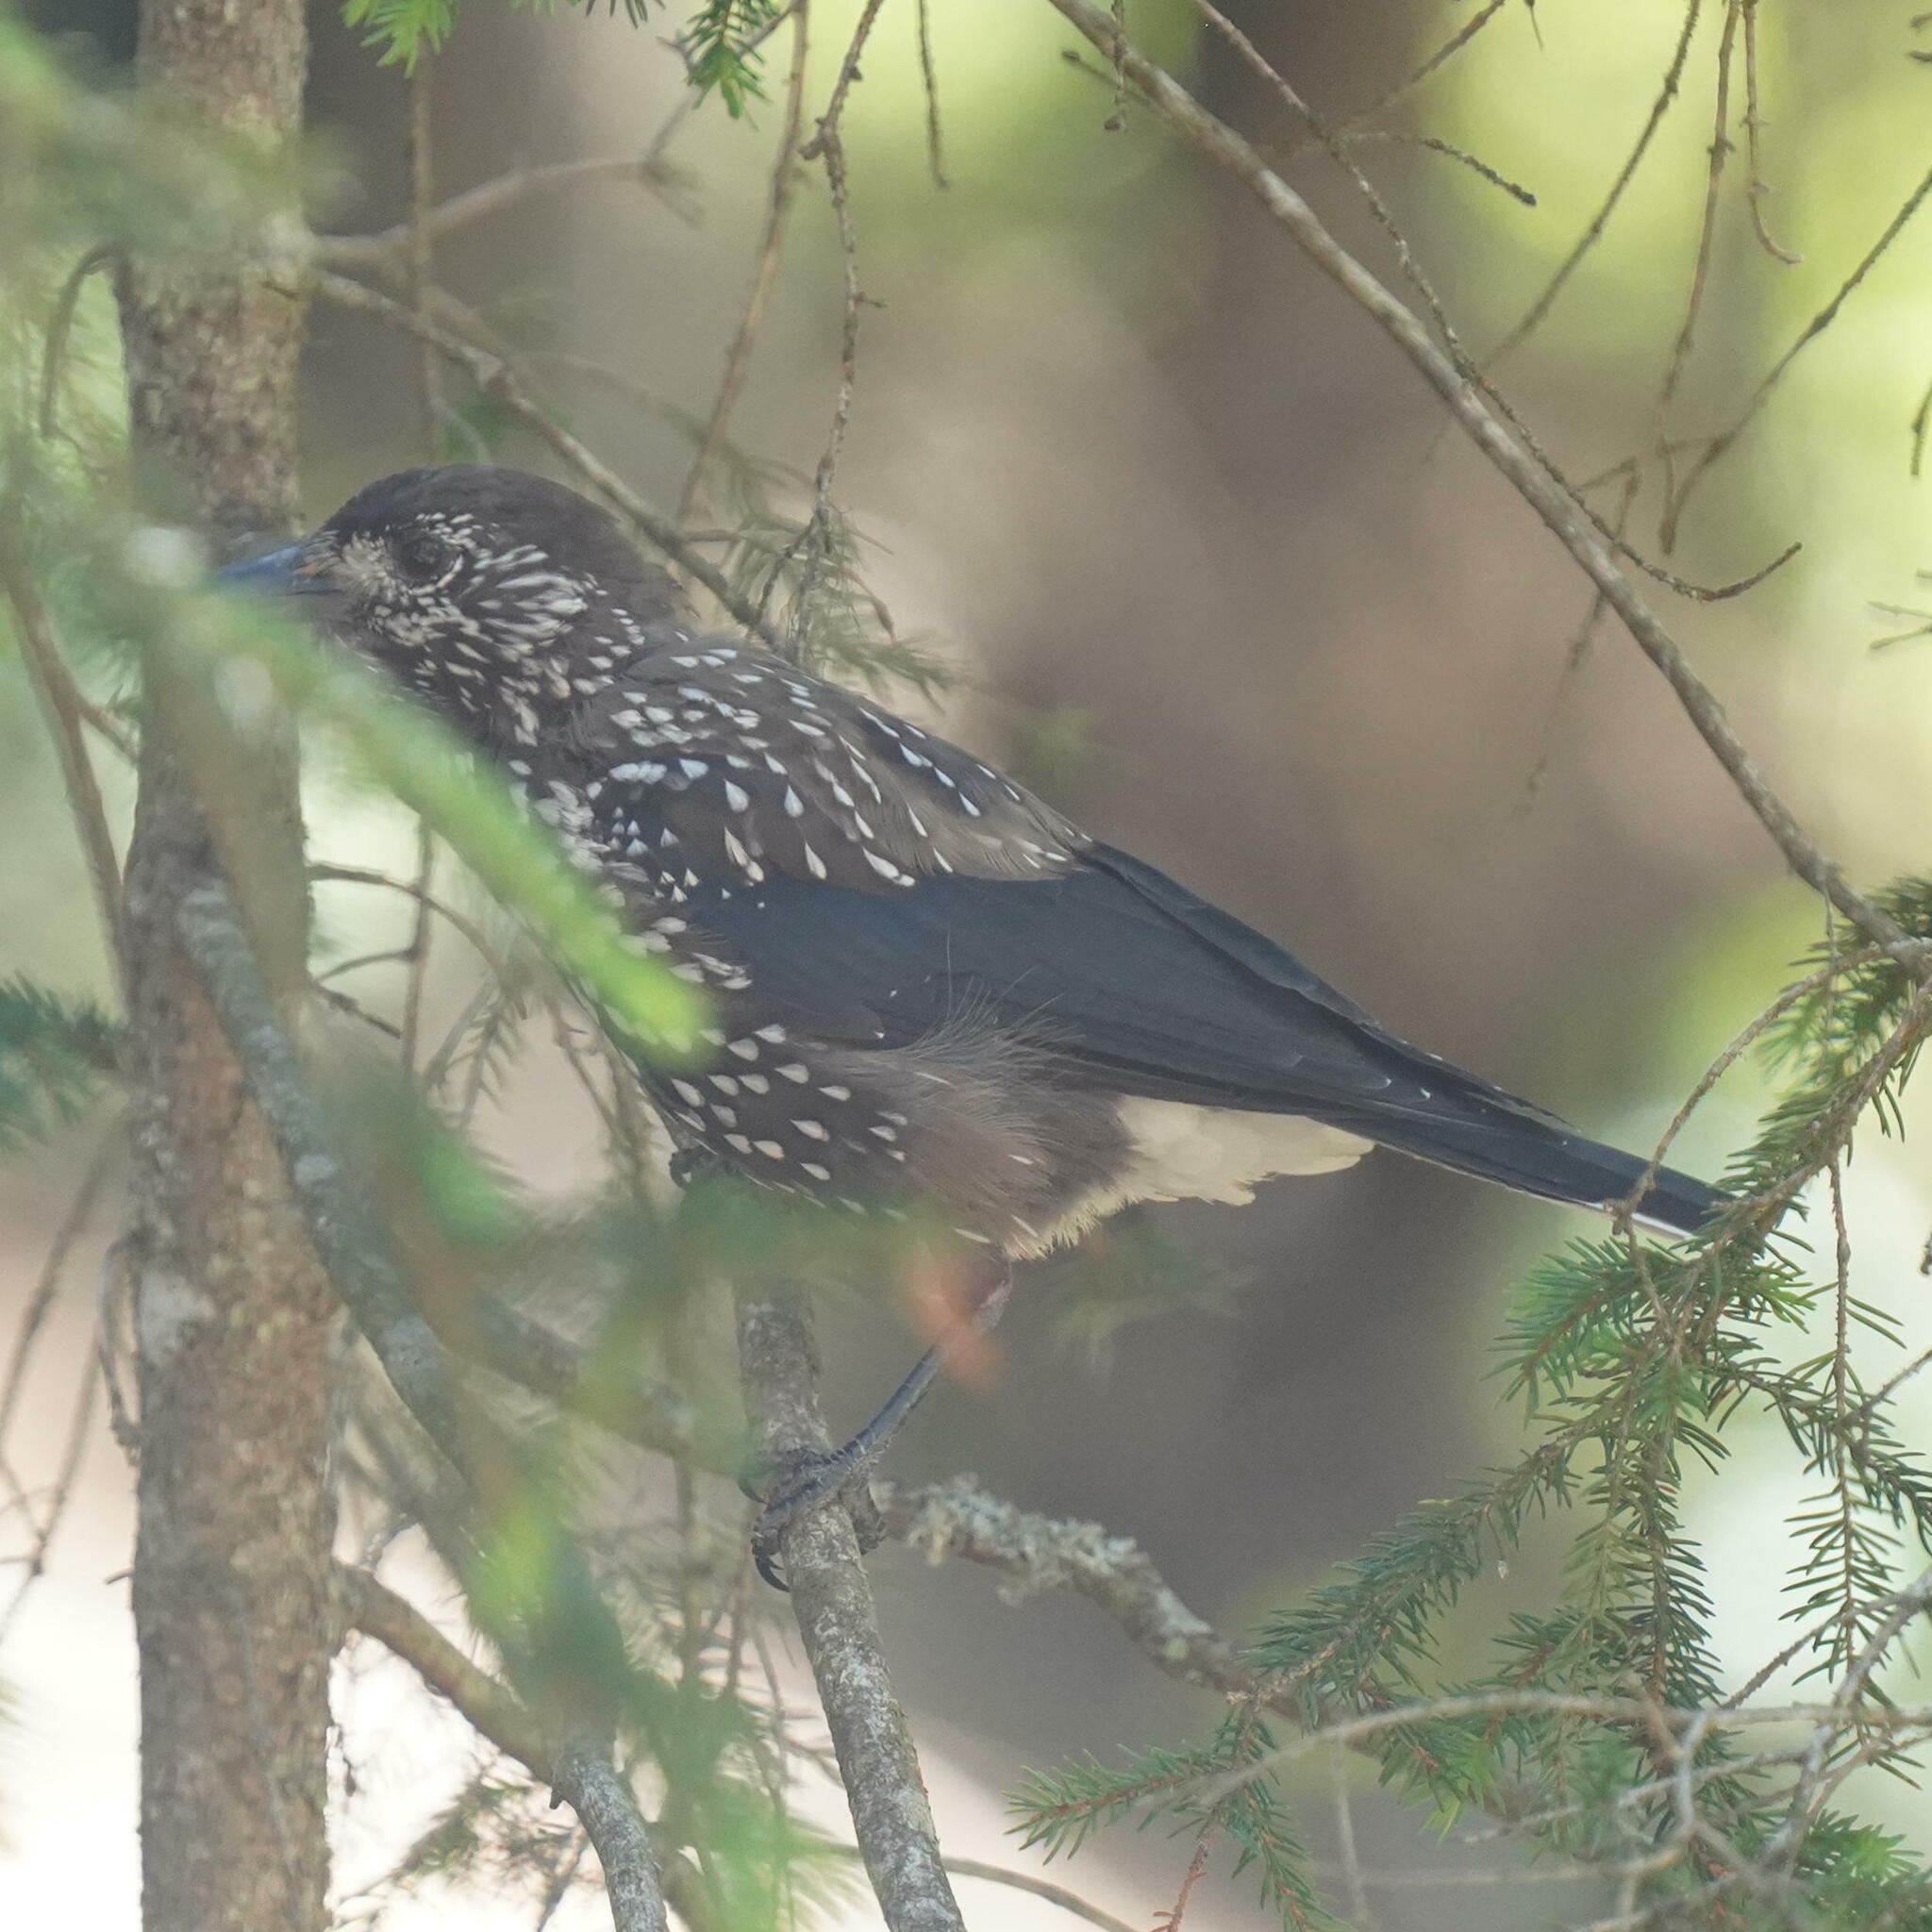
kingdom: Animalia
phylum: Chordata
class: Aves
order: Passeriformes
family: Corvidae
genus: Nucifraga
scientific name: Nucifraga caryocatactes
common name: Spotted nutcracker
